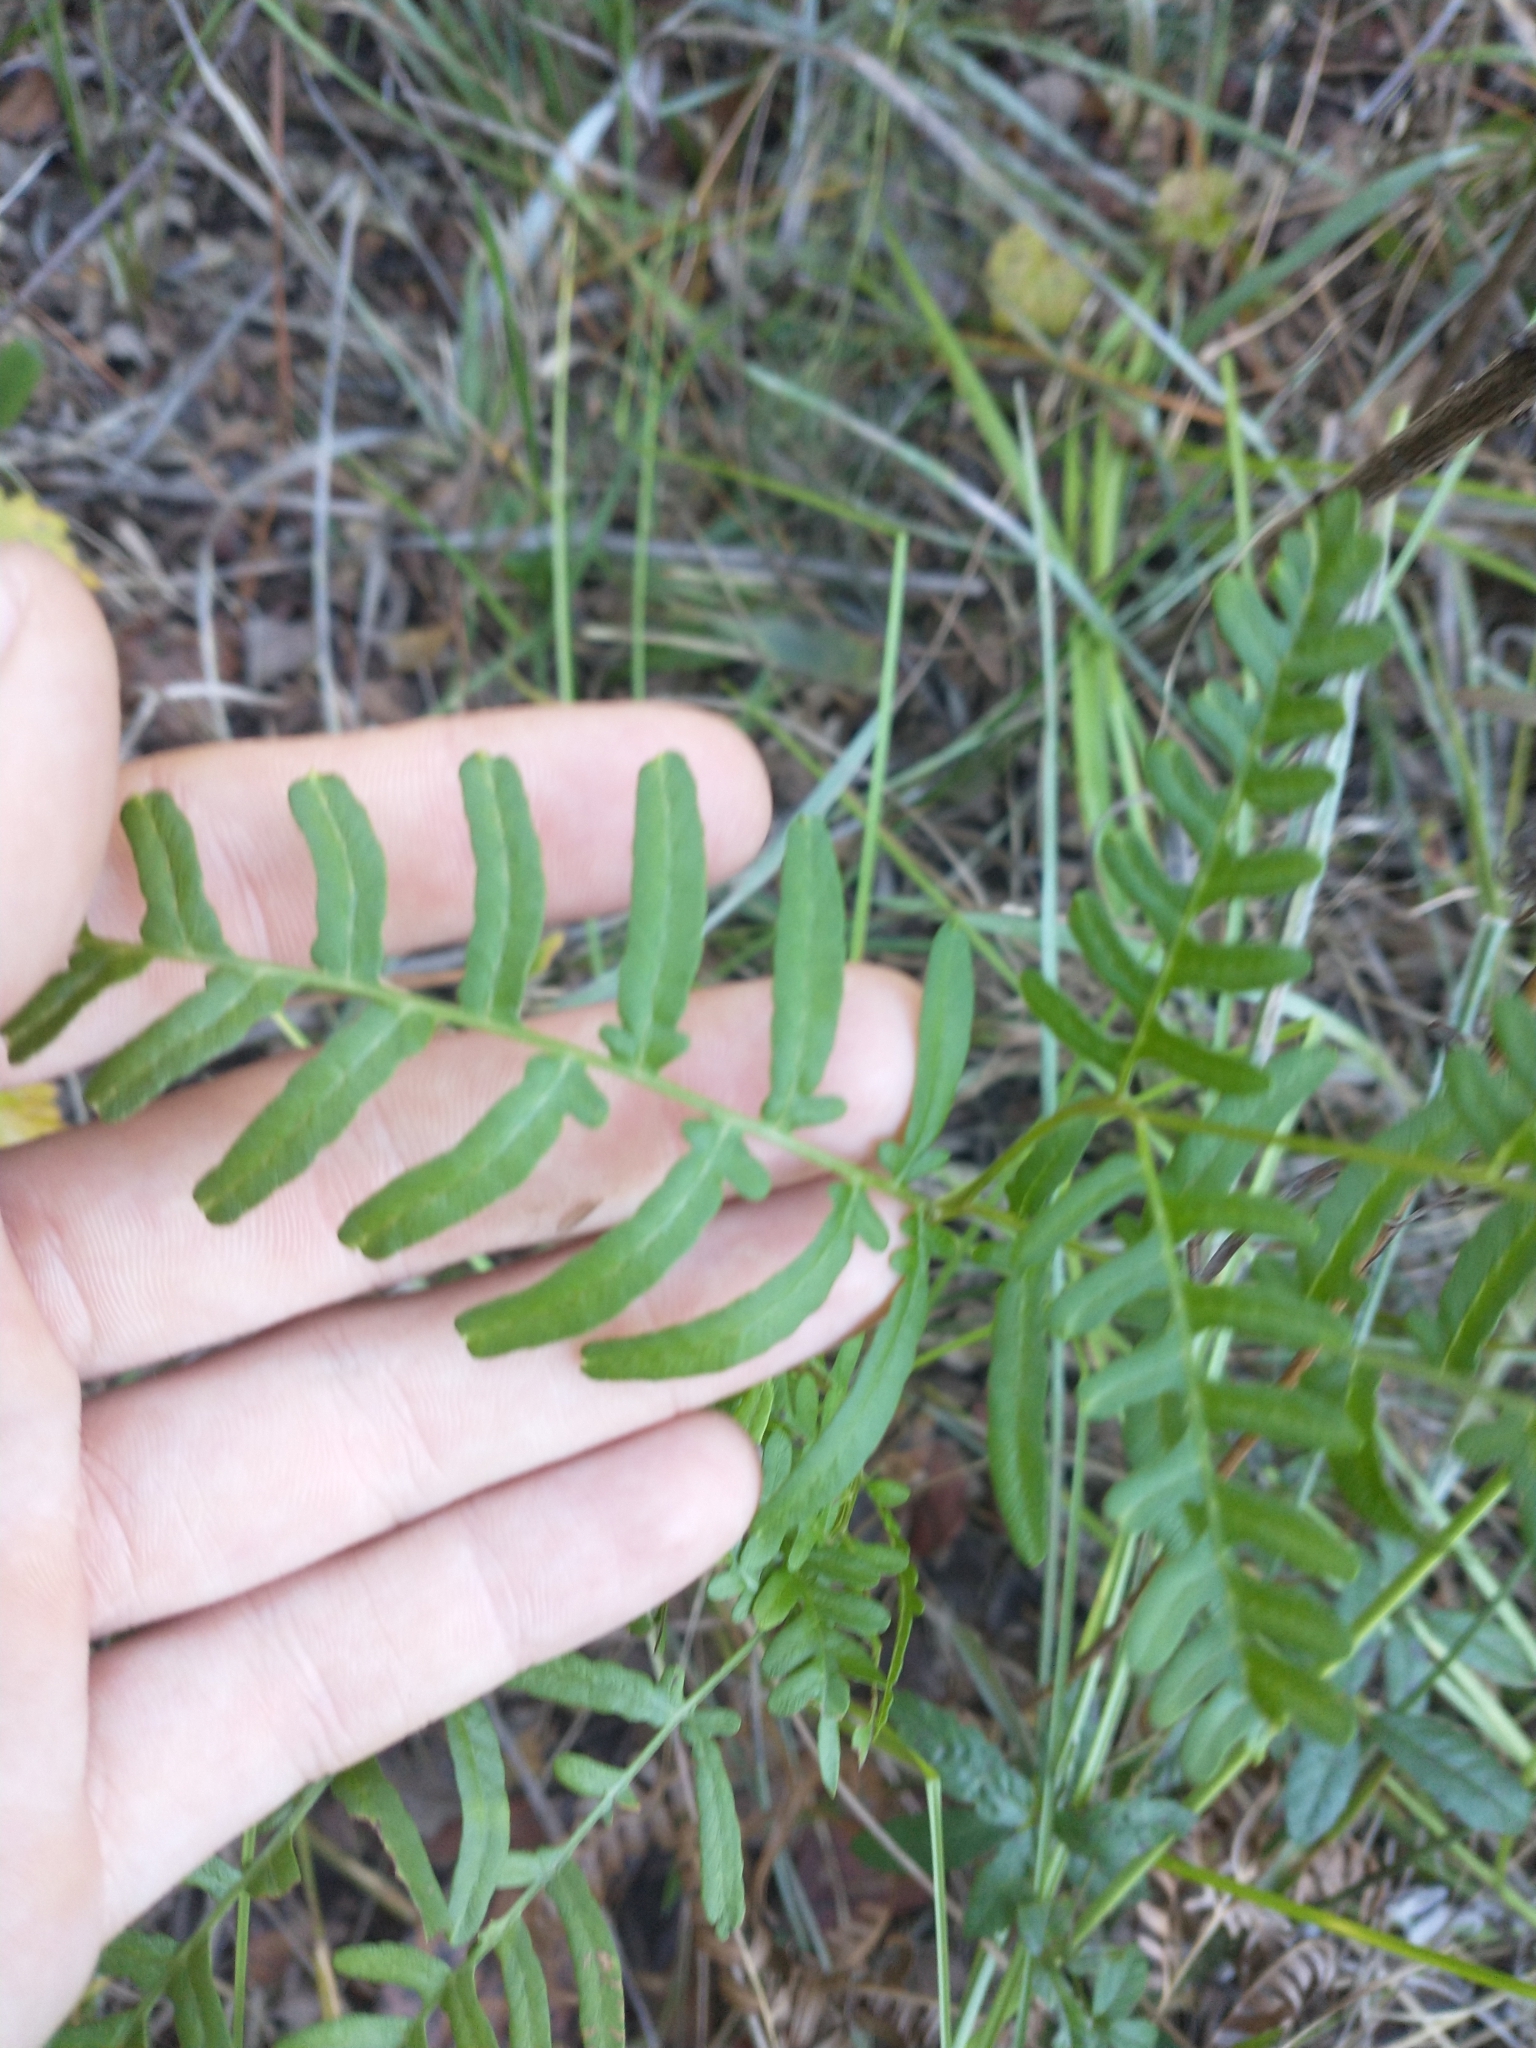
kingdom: Plantae
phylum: Tracheophyta
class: Polypodiopsida
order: Polypodiales
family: Dennstaedtiaceae
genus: Pteridium
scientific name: Pteridium
